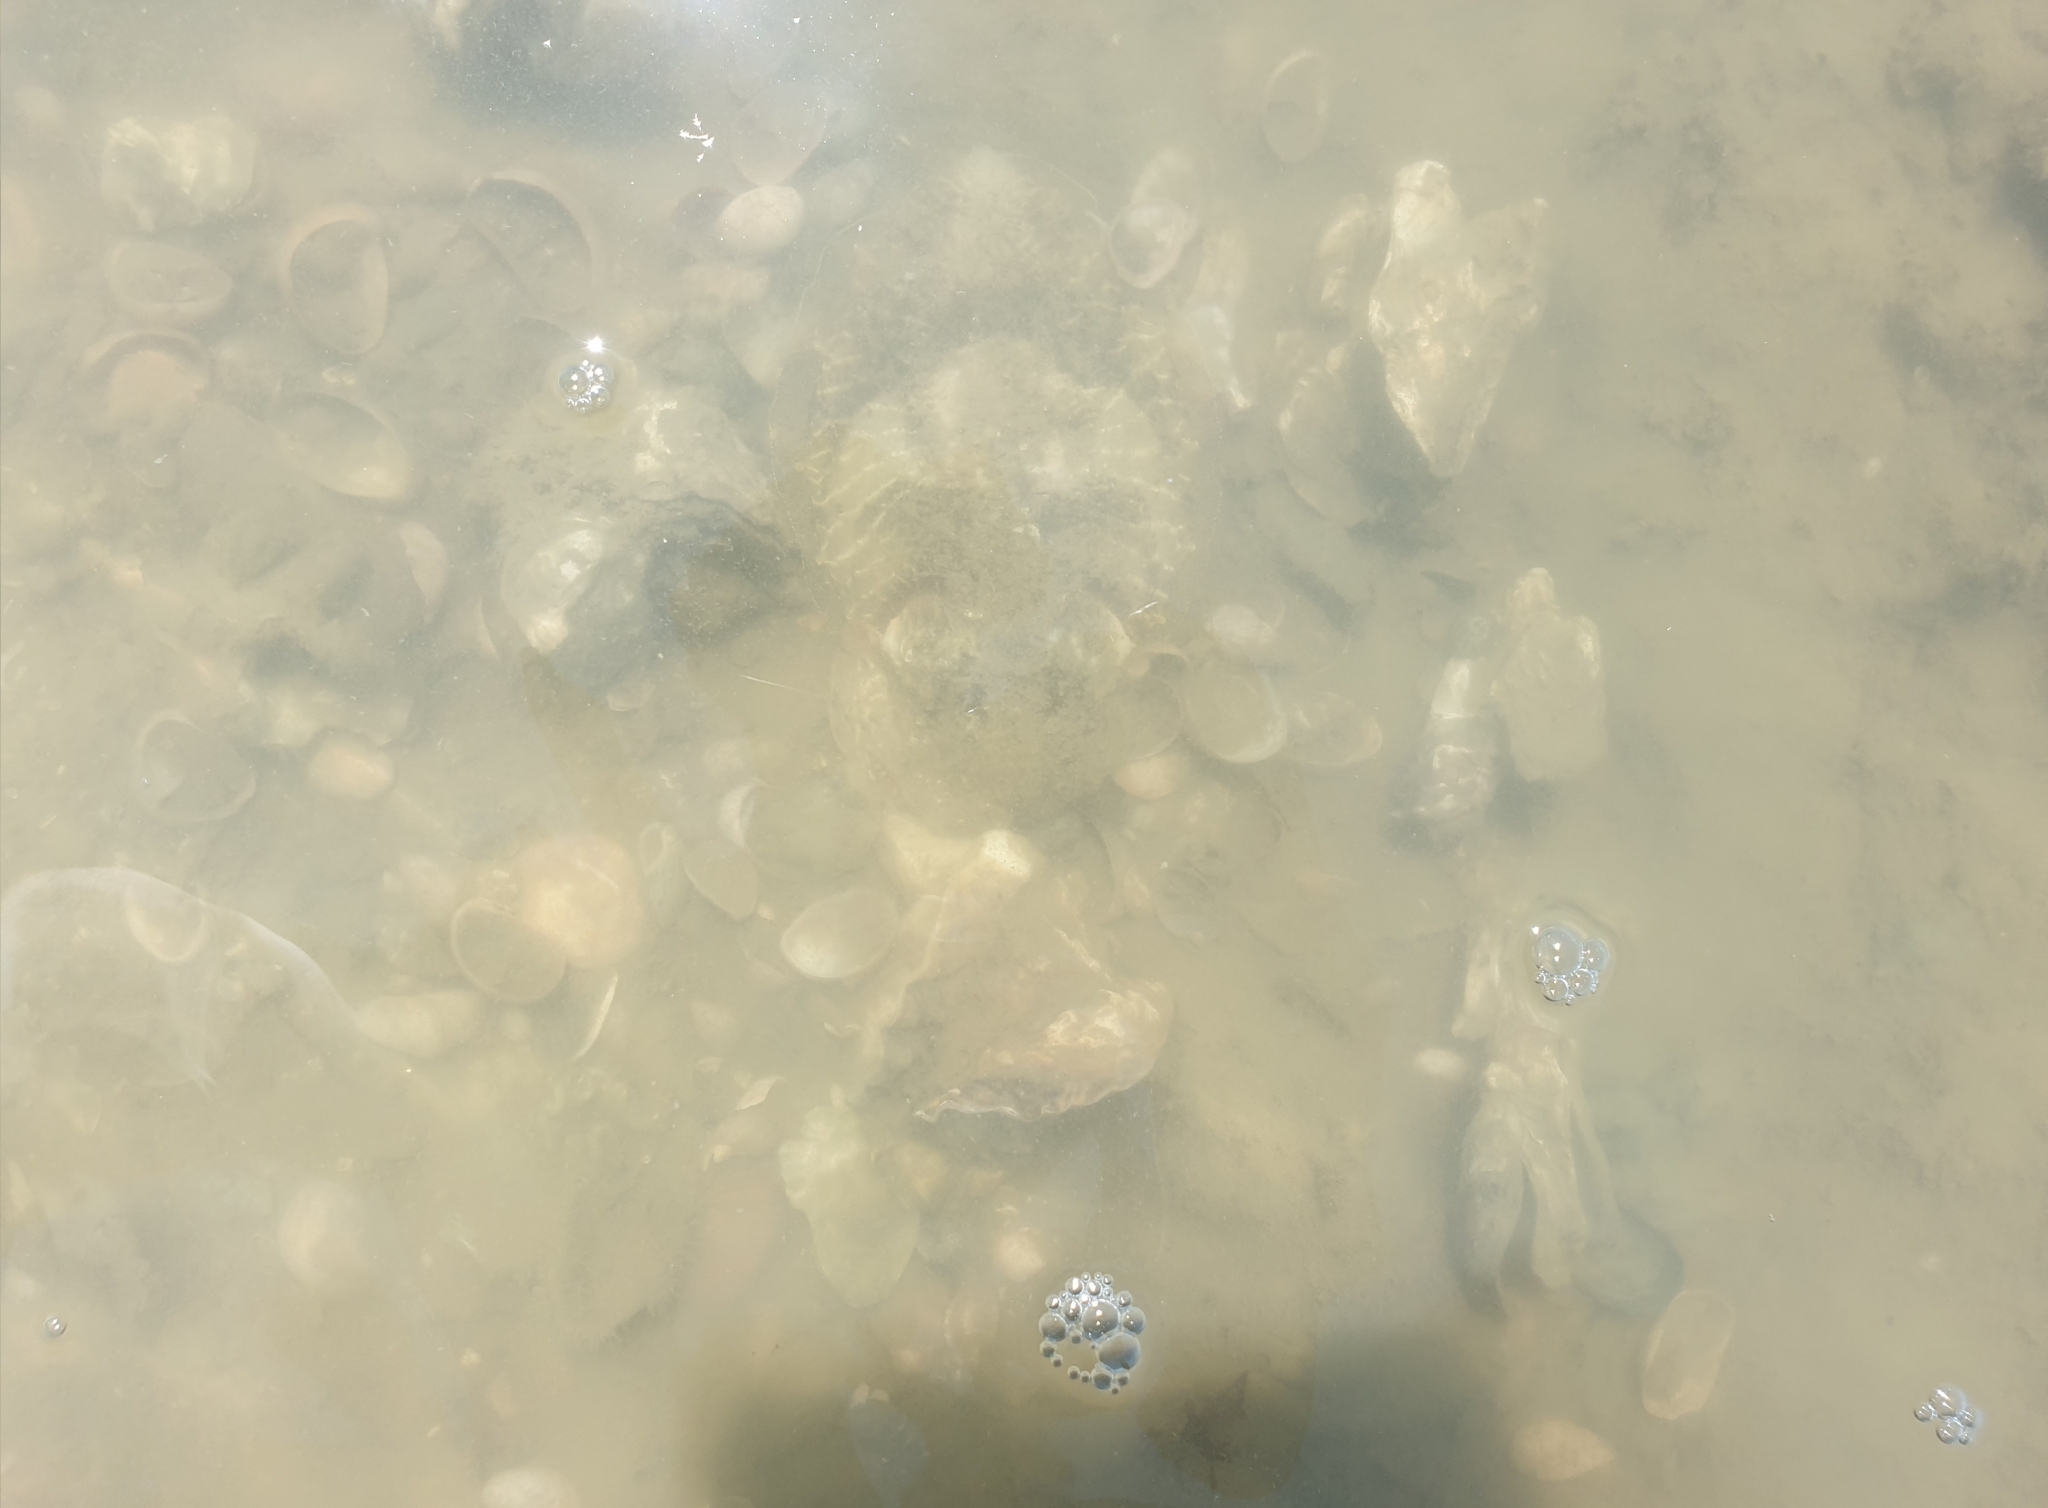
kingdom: Animalia
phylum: Mollusca
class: Cephalopoda
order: Sepiida
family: Sepiidae
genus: Sepia
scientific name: Sepia officinalis
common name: Common cuttlefish
